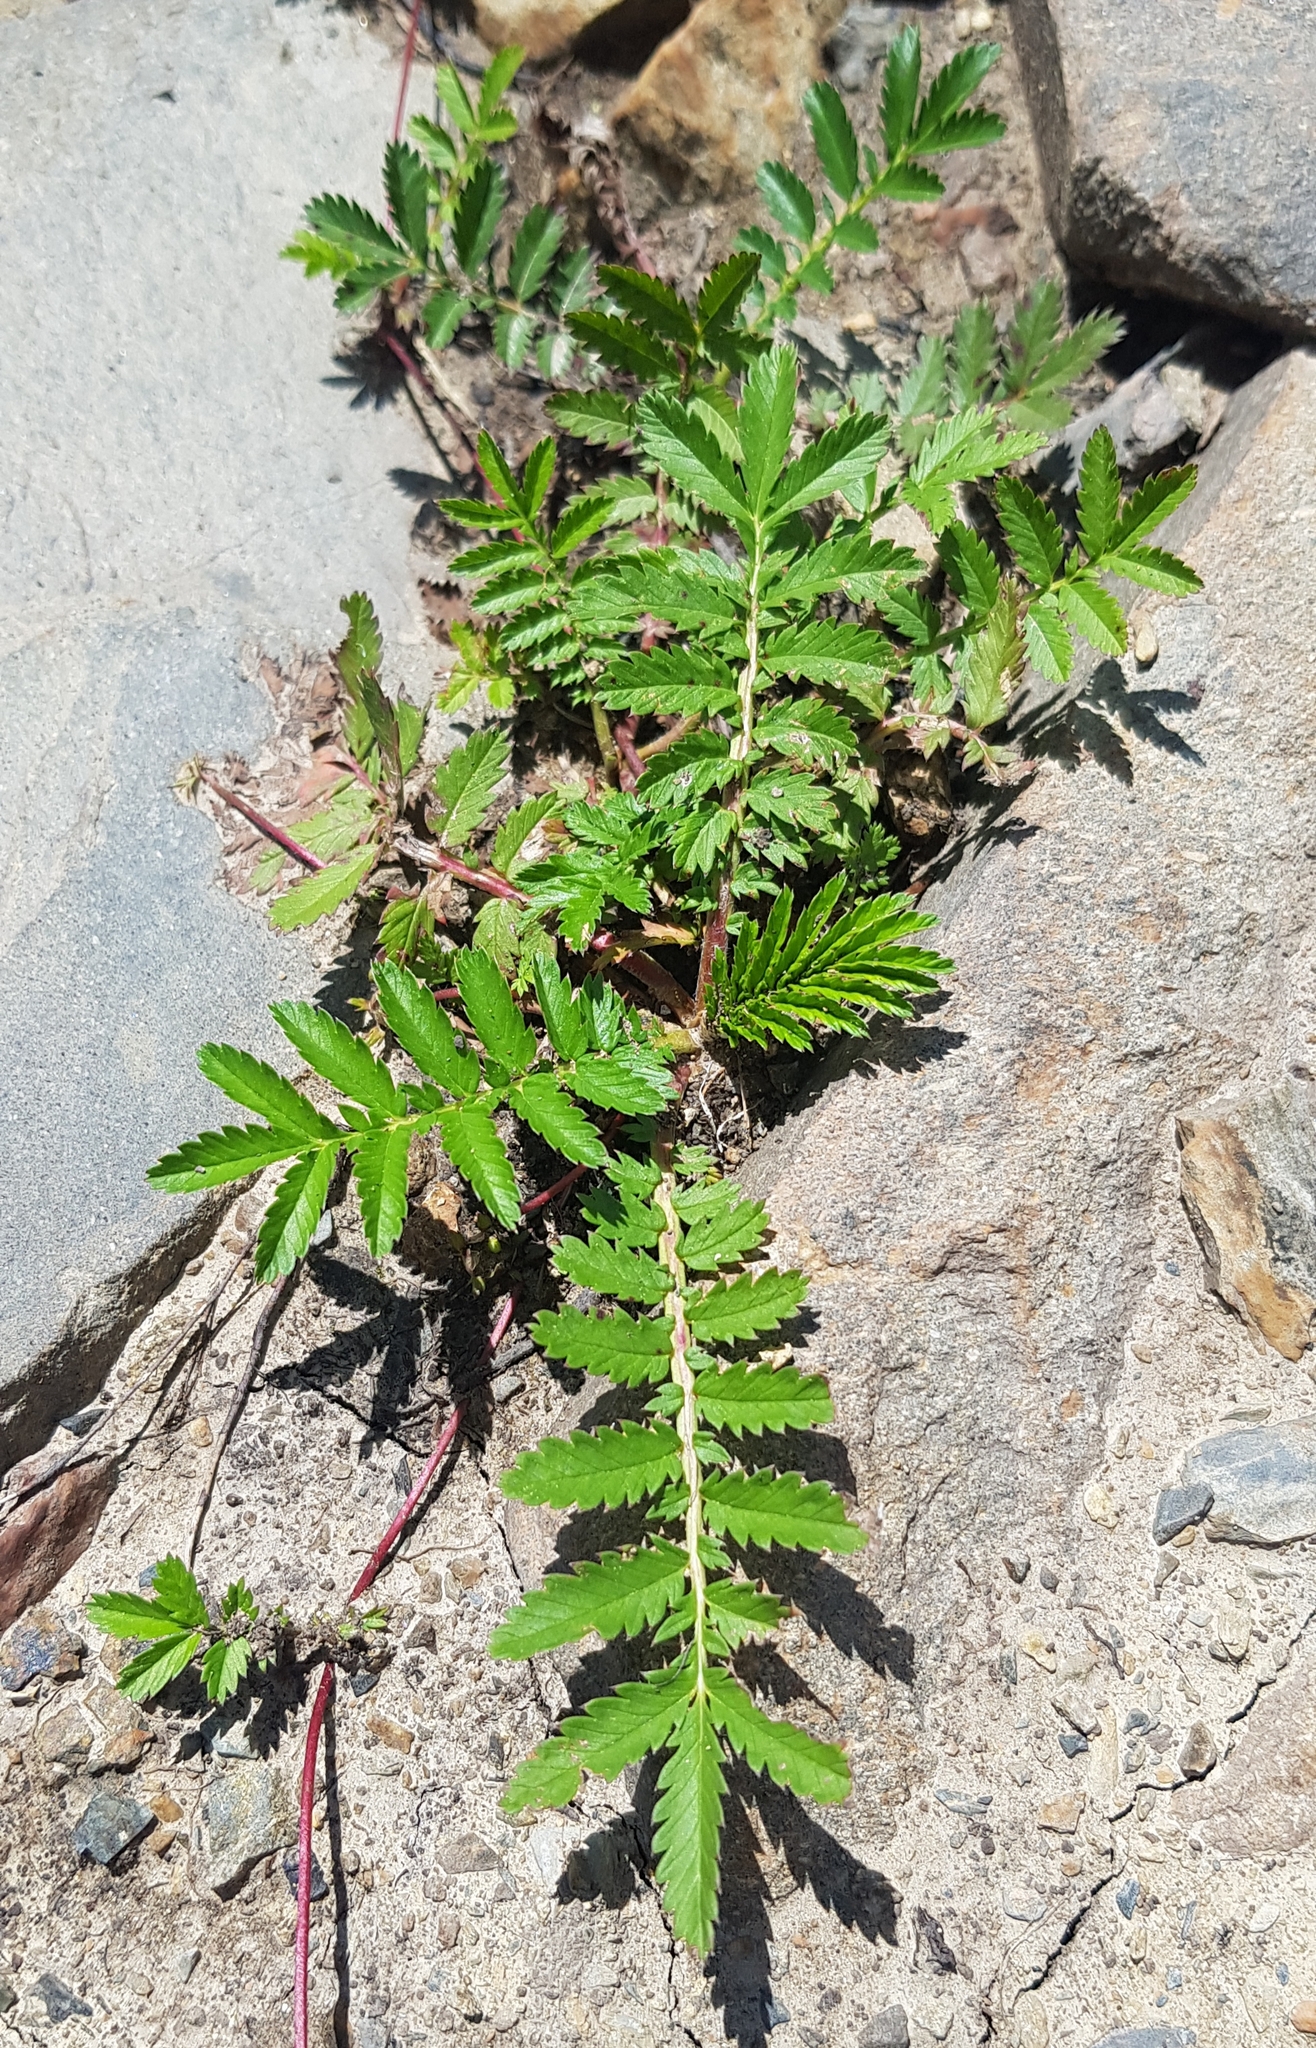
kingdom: Plantae
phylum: Tracheophyta
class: Magnoliopsida
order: Rosales
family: Rosaceae
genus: Argentina
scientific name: Argentina anserina
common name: Common silverweed
